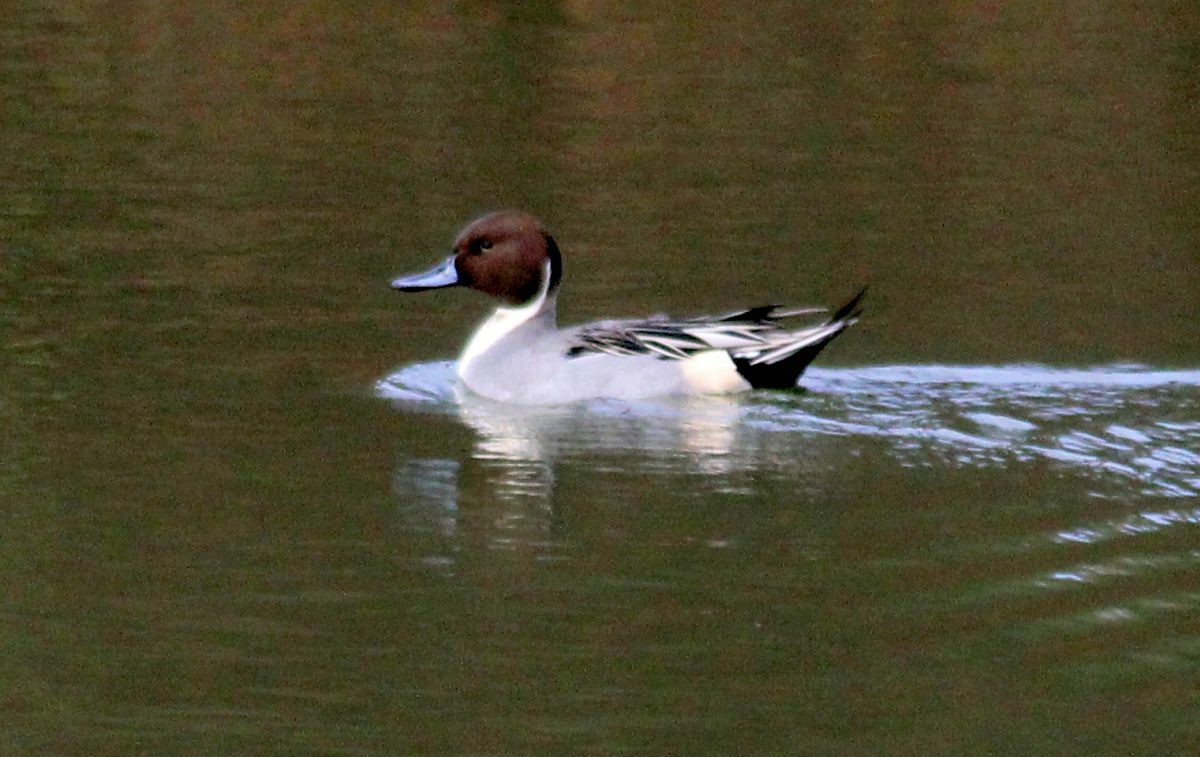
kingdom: Animalia
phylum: Chordata
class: Aves
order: Anseriformes
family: Anatidae
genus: Anas
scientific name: Anas acuta
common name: Northern pintail
